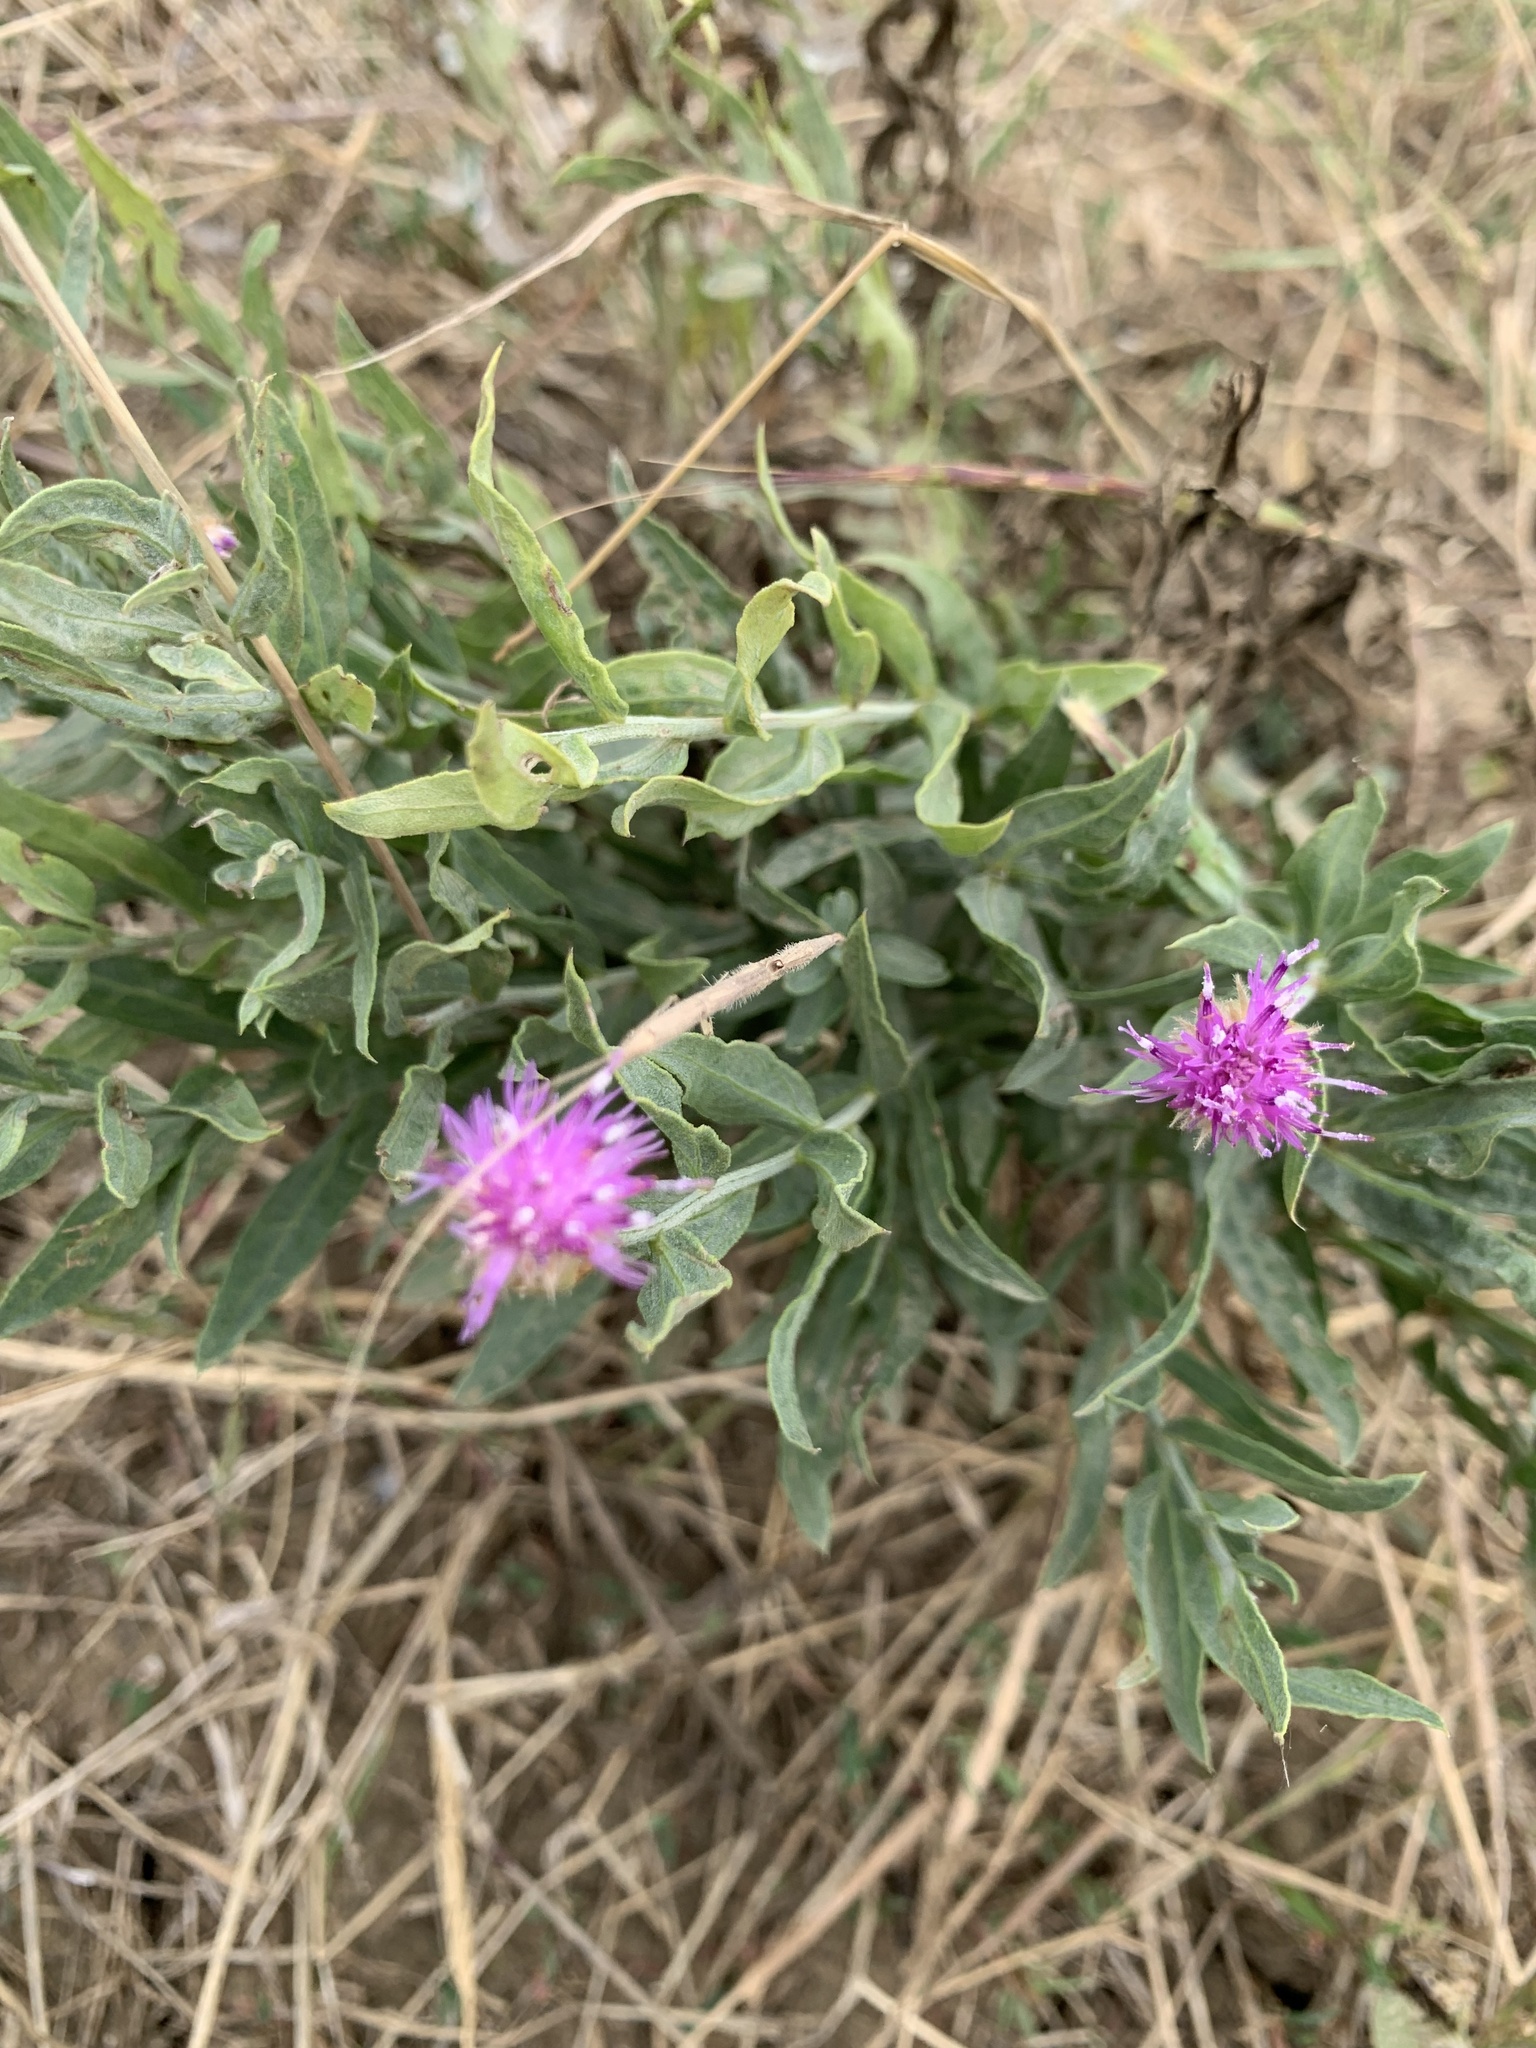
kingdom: Plantae
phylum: Tracheophyta
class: Magnoliopsida
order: Asterales
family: Asteraceae
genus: Leuzea
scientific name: Leuzea repens
